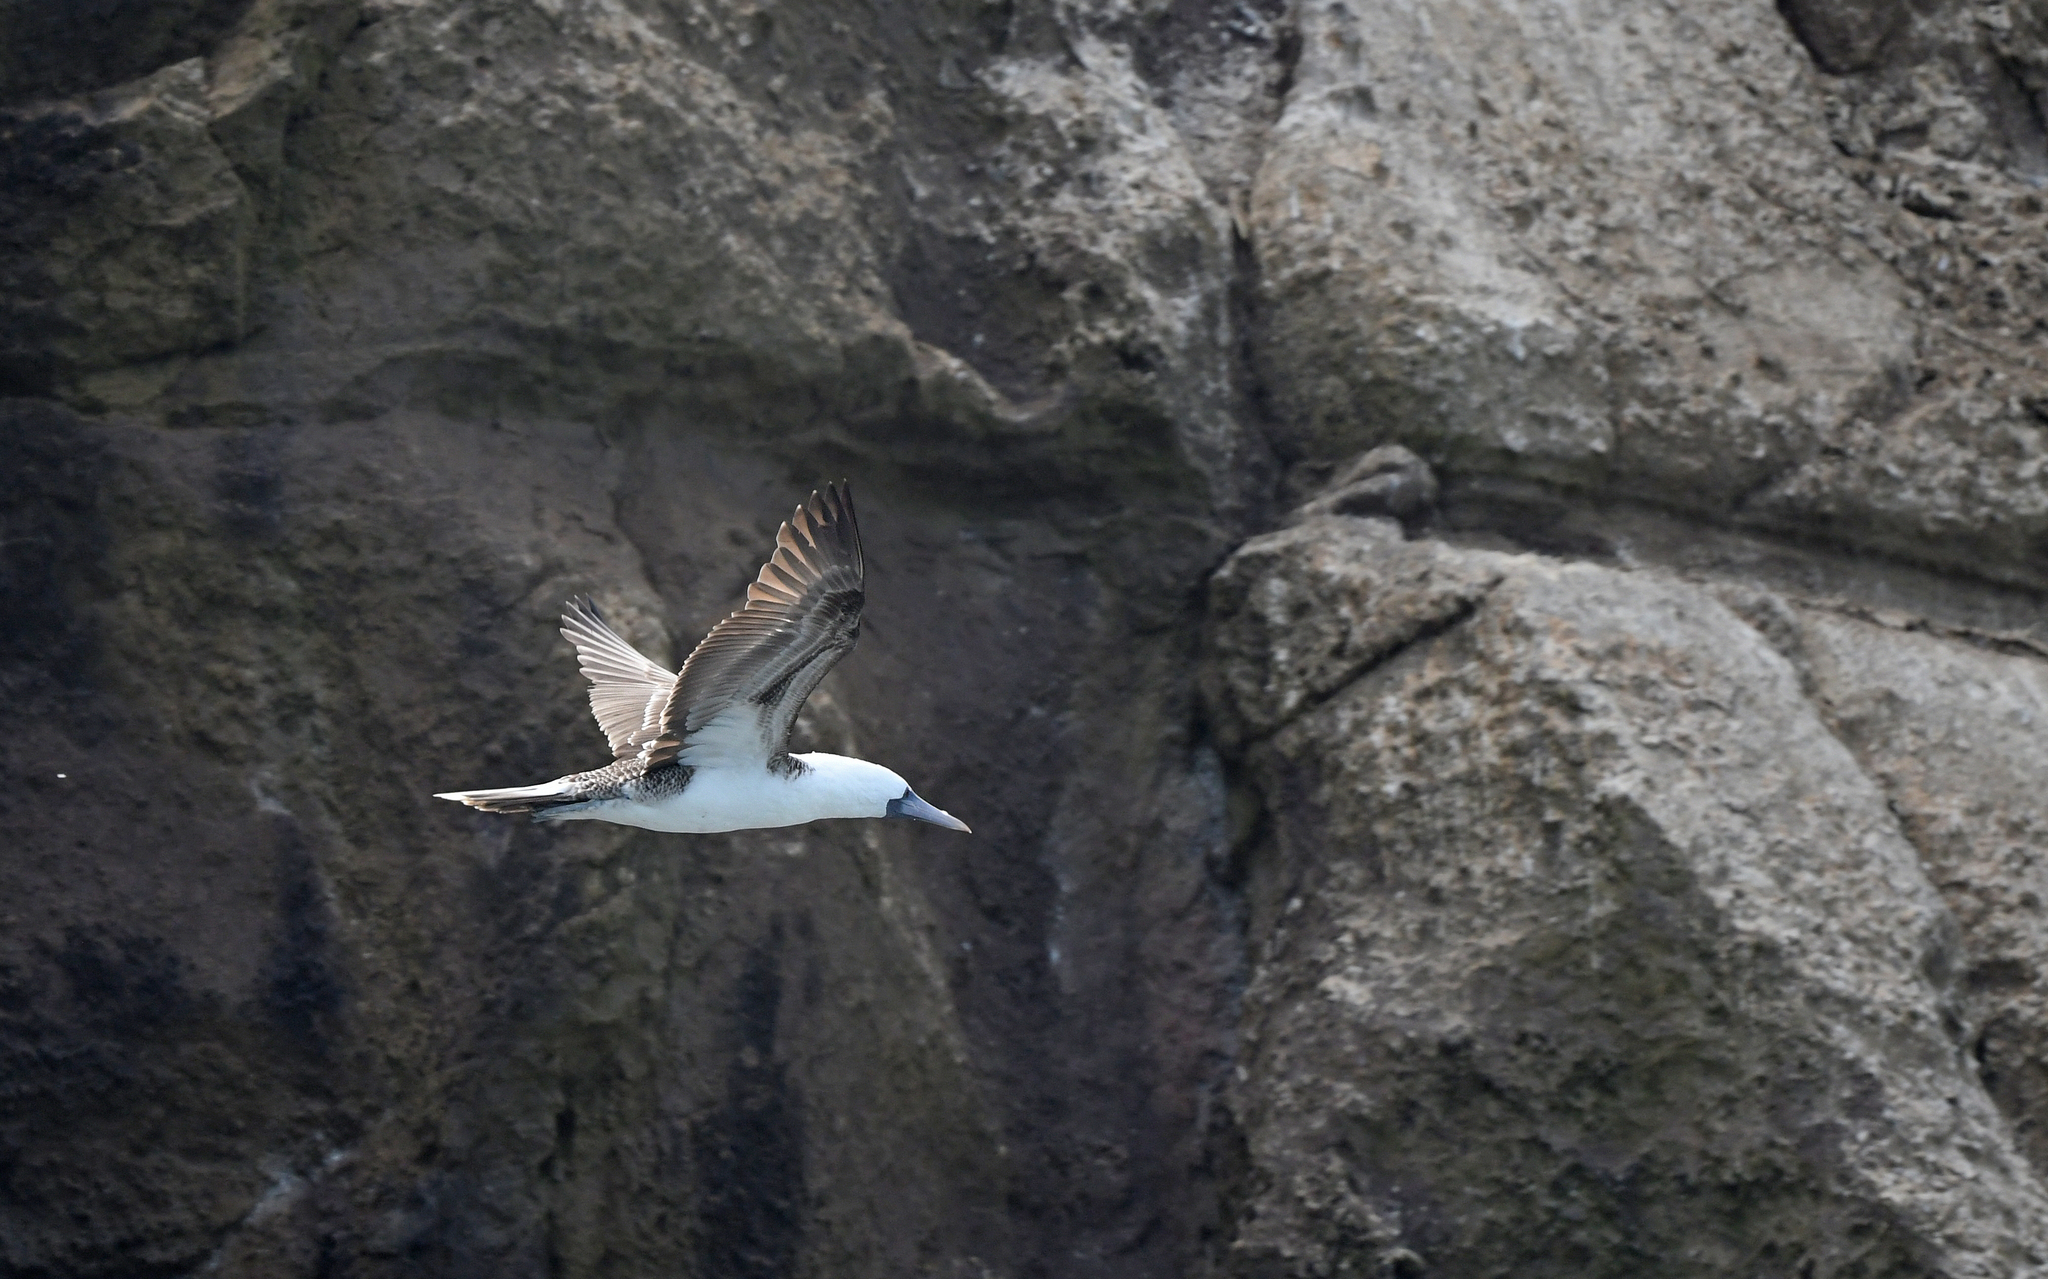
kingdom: Animalia
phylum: Chordata
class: Aves
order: Suliformes
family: Sulidae
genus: Sula
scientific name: Sula variegata
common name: Peruvian booby
